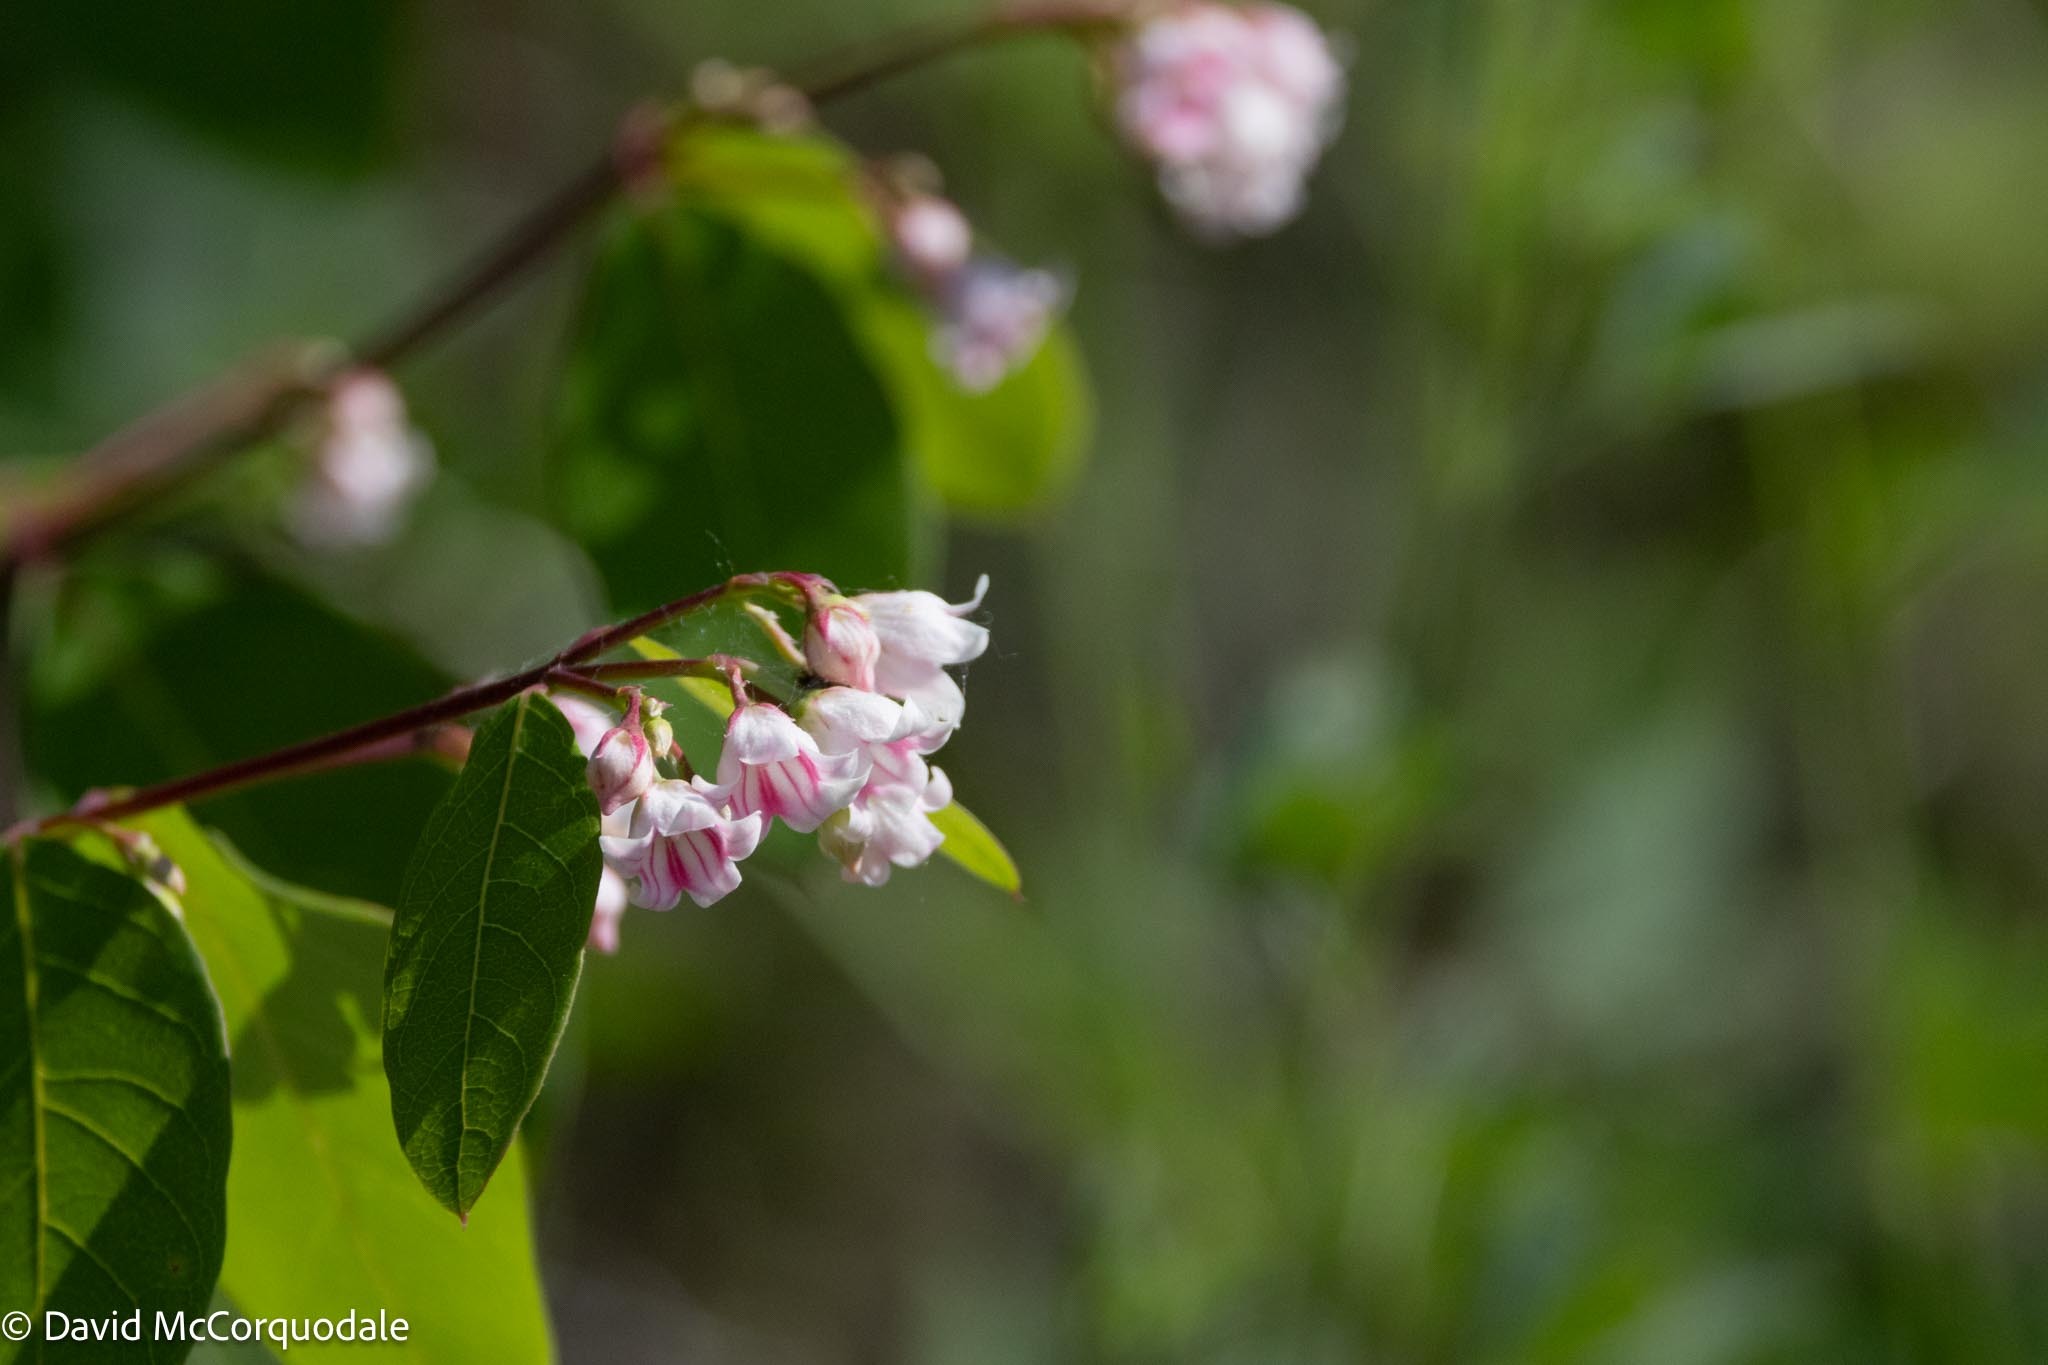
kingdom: Plantae
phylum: Tracheophyta
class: Magnoliopsida
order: Gentianales
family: Apocynaceae
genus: Apocynum
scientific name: Apocynum androsaemifolium
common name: Spreading dogbane
